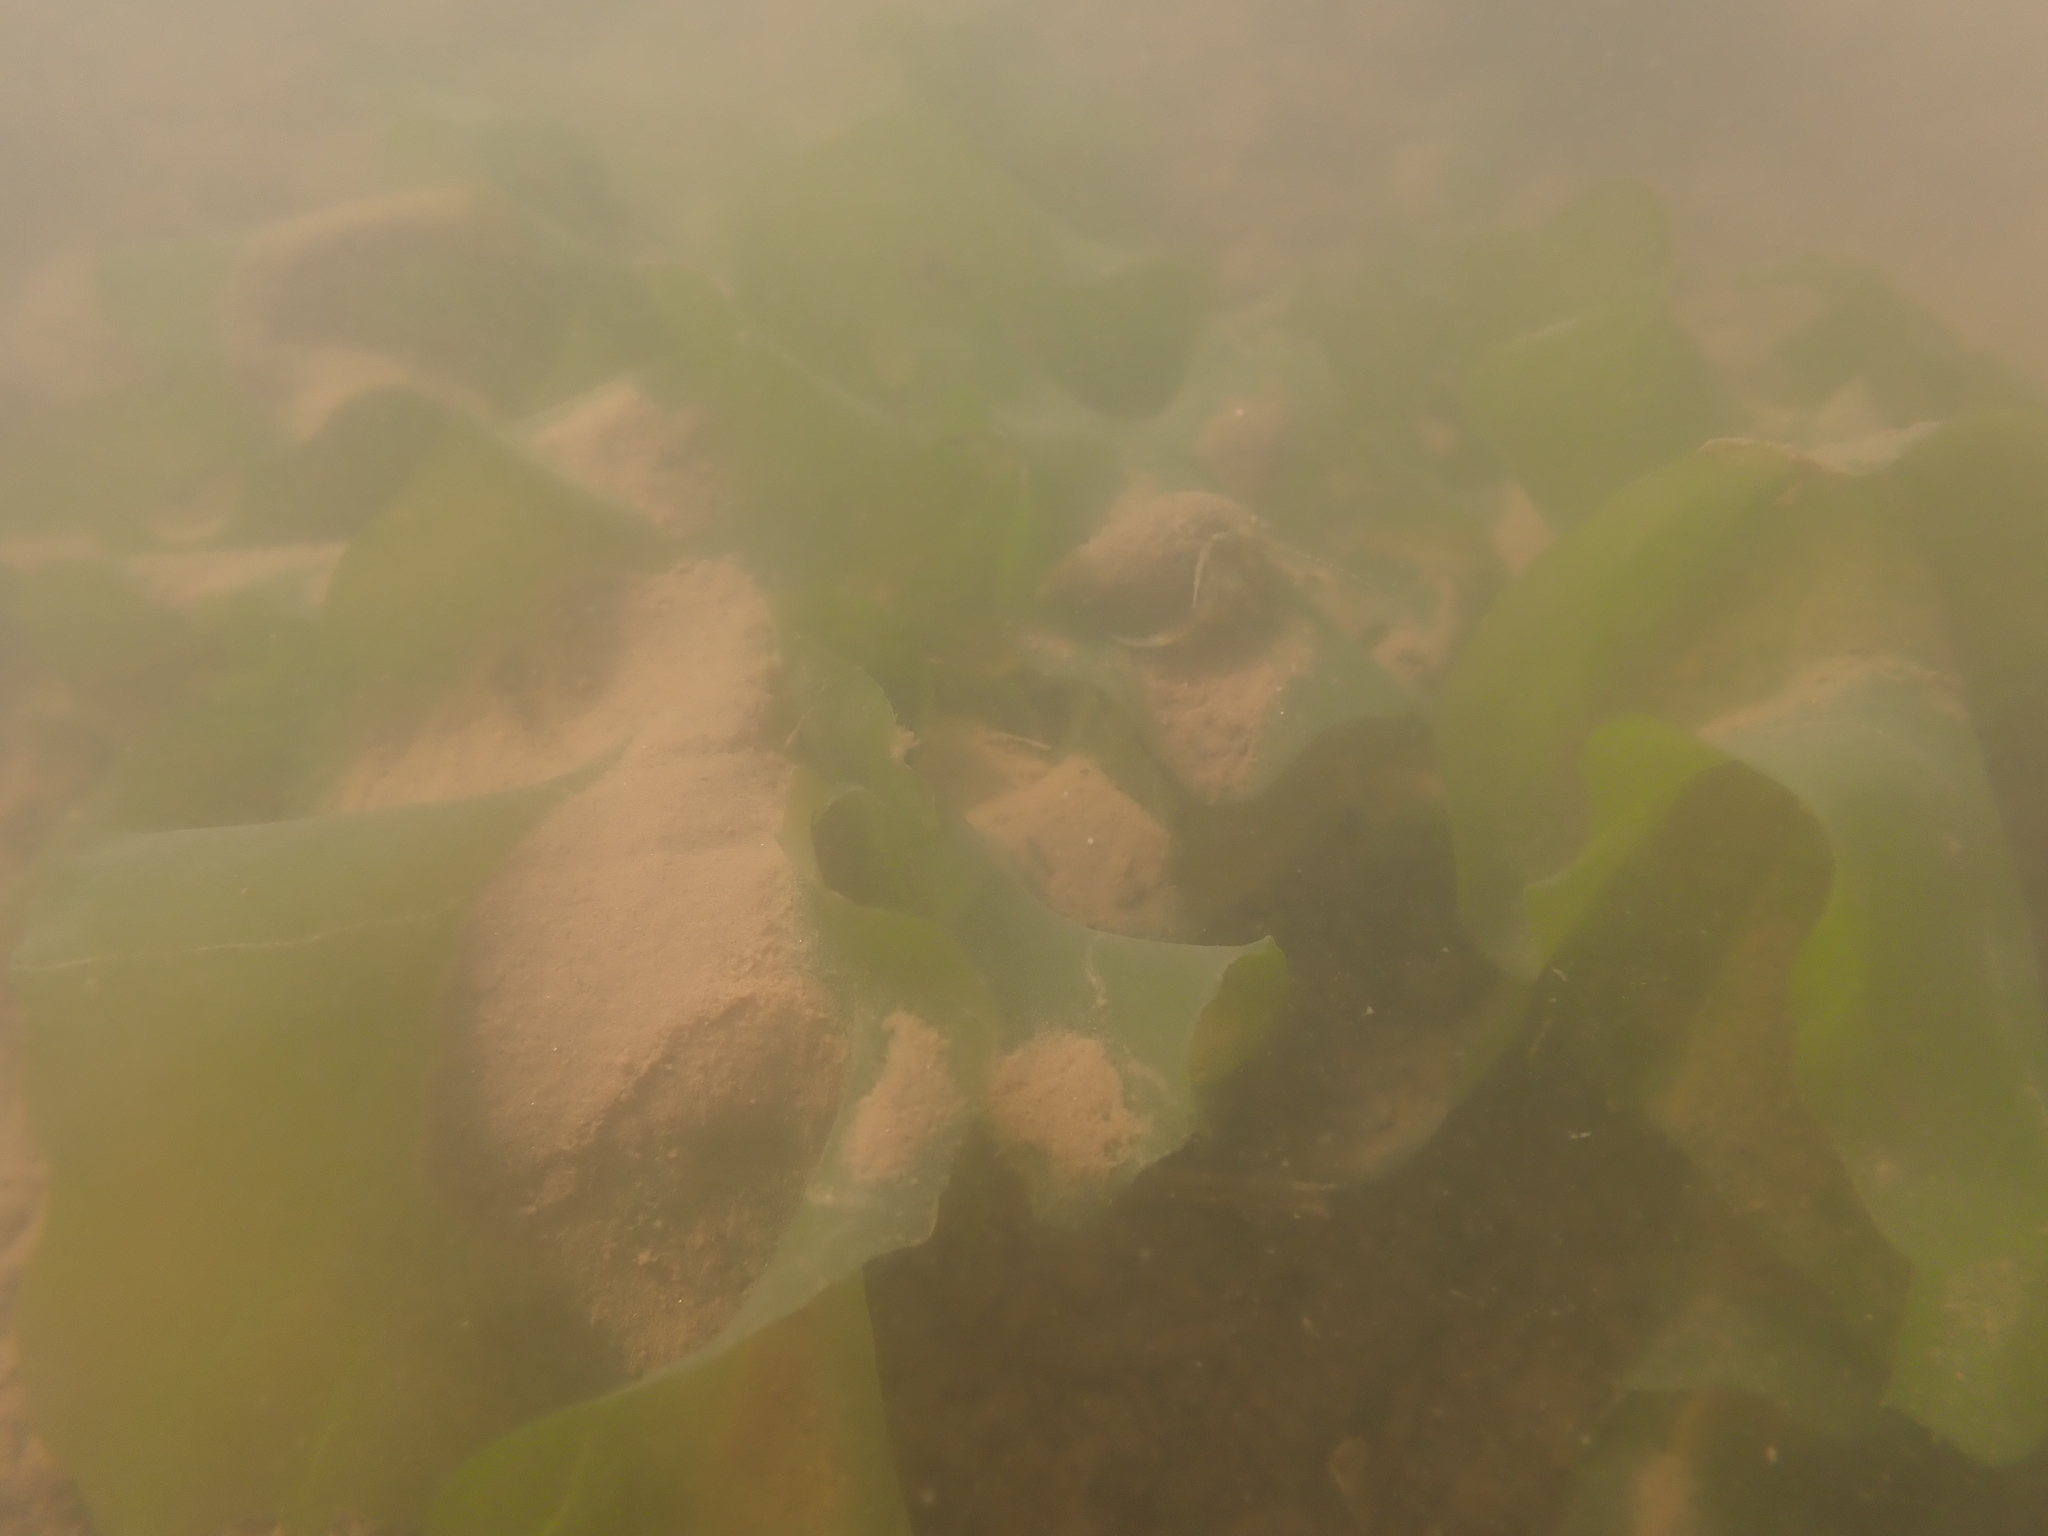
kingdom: Plantae
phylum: Chlorophyta
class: Ulvophyceae
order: Ulvales
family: Ulvaceae
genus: Ulva
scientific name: Ulva lactuca
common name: Sea lettuce
